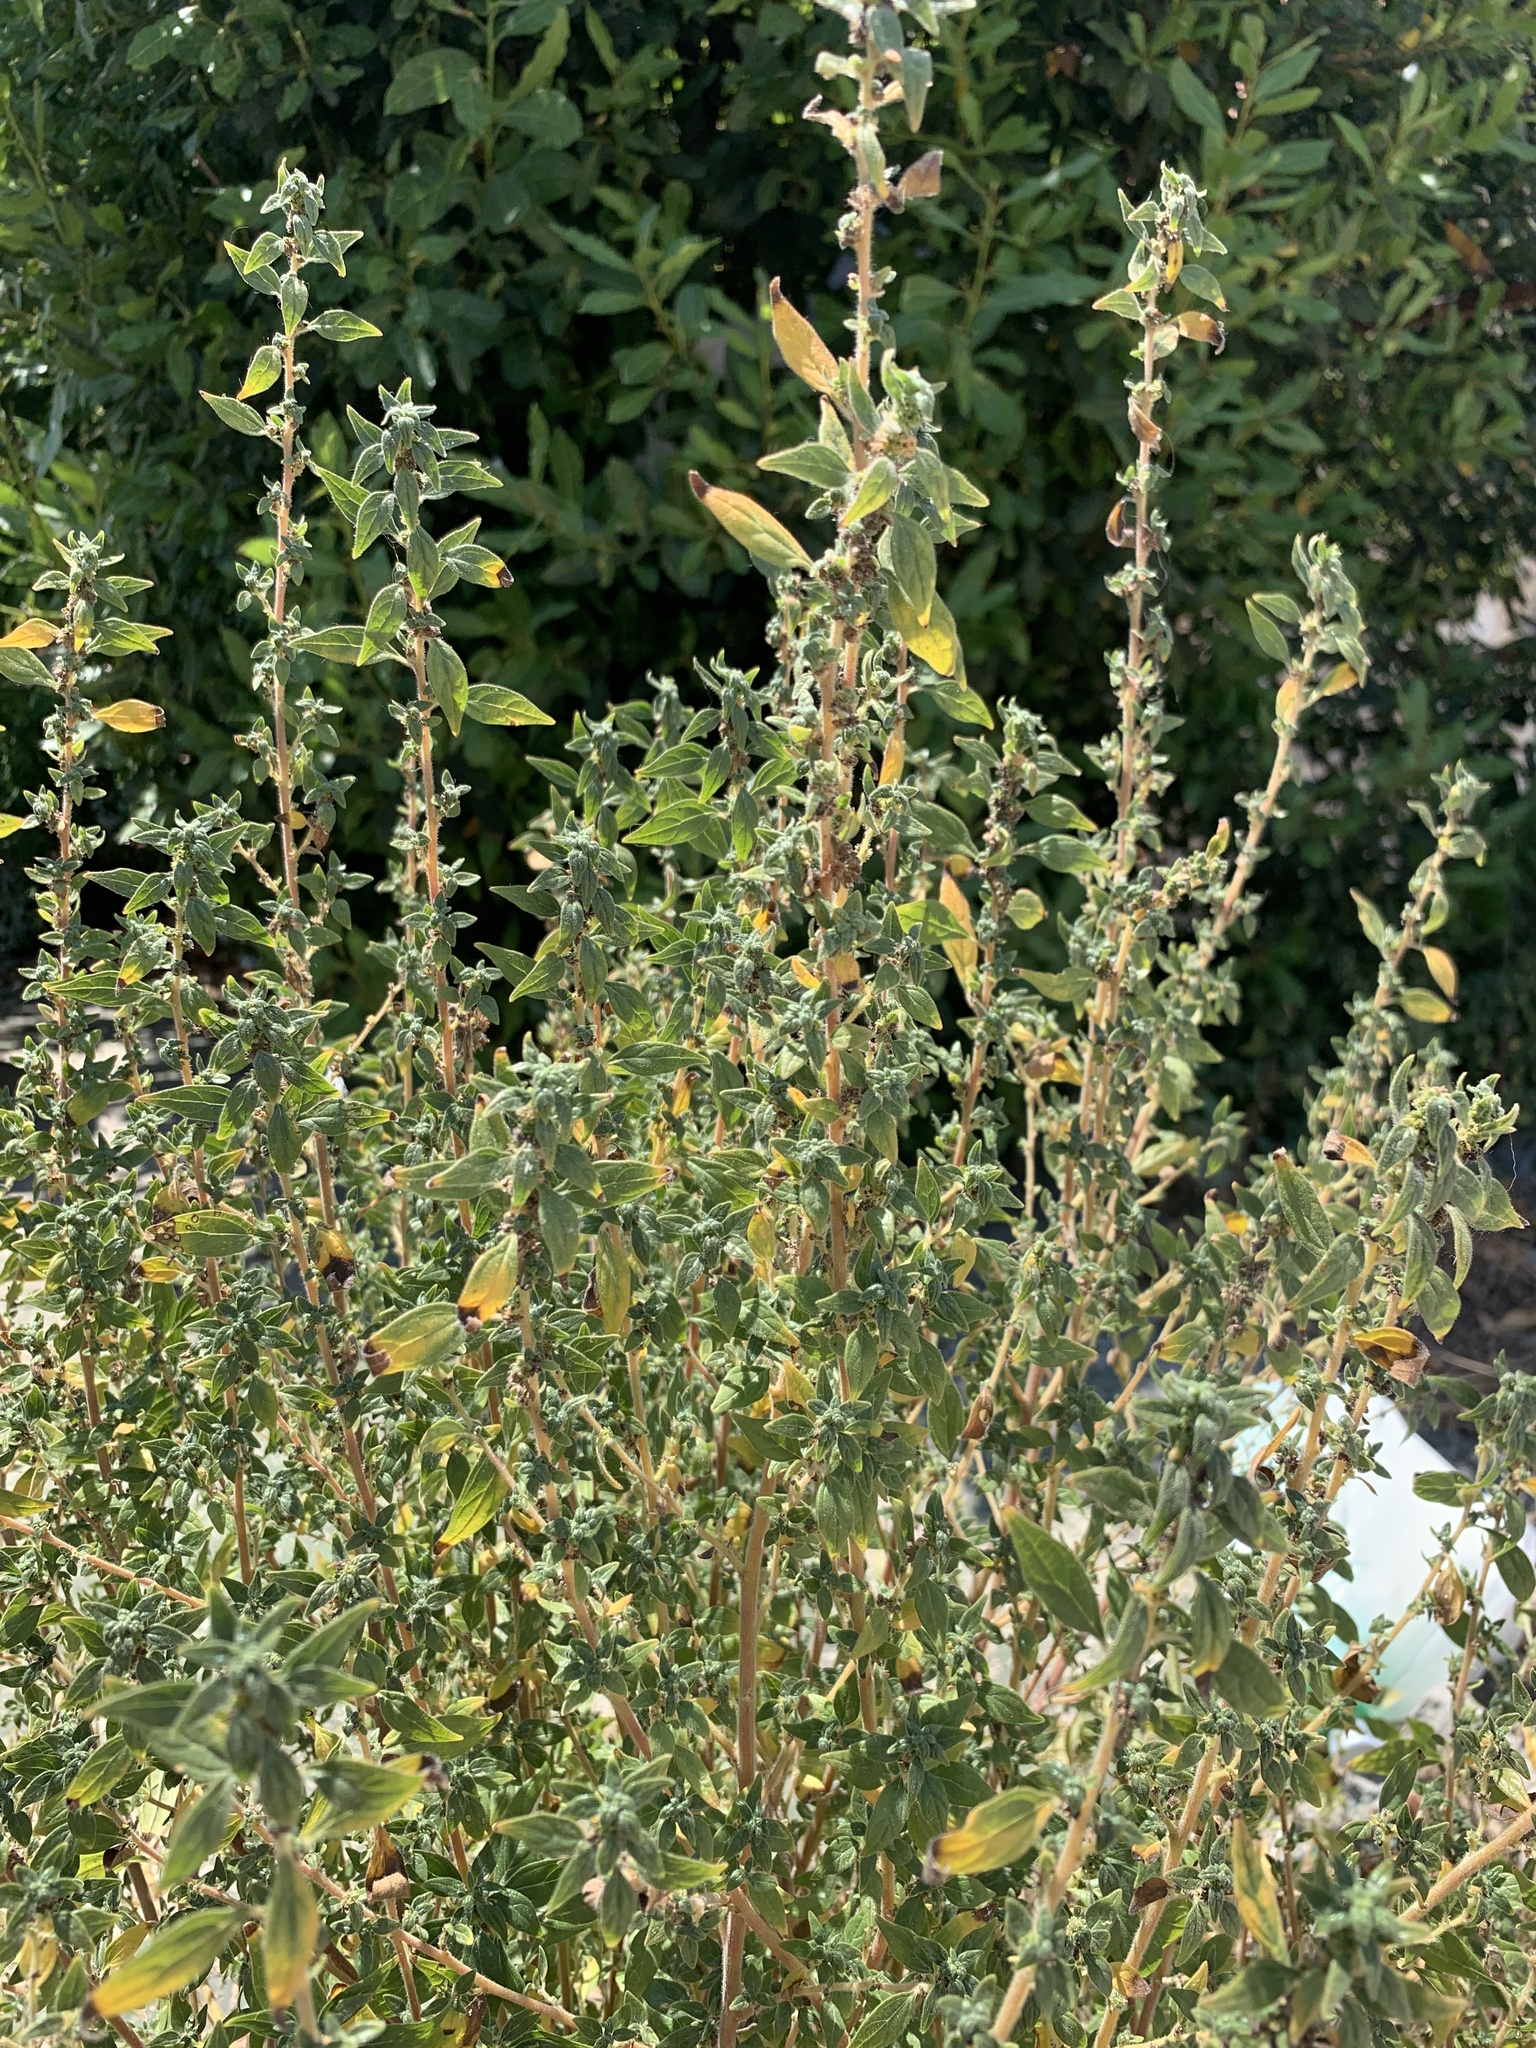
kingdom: Plantae
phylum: Tracheophyta
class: Magnoliopsida
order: Rosales
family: Urticaceae
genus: Parietaria
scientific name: Parietaria judaica
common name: Pellitory-of-the-wall
